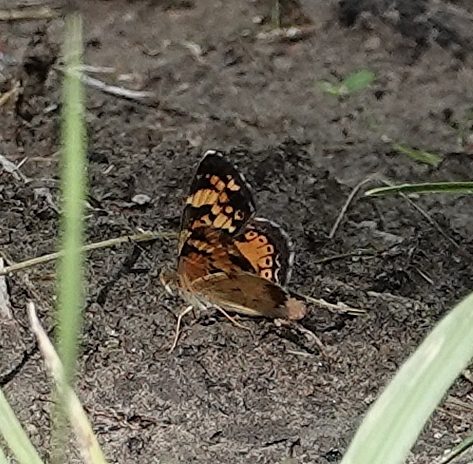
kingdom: Animalia
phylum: Arthropoda
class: Insecta
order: Lepidoptera
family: Nymphalidae
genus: Phyciodes
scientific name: Phyciodes tharos
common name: Pearl crescent
